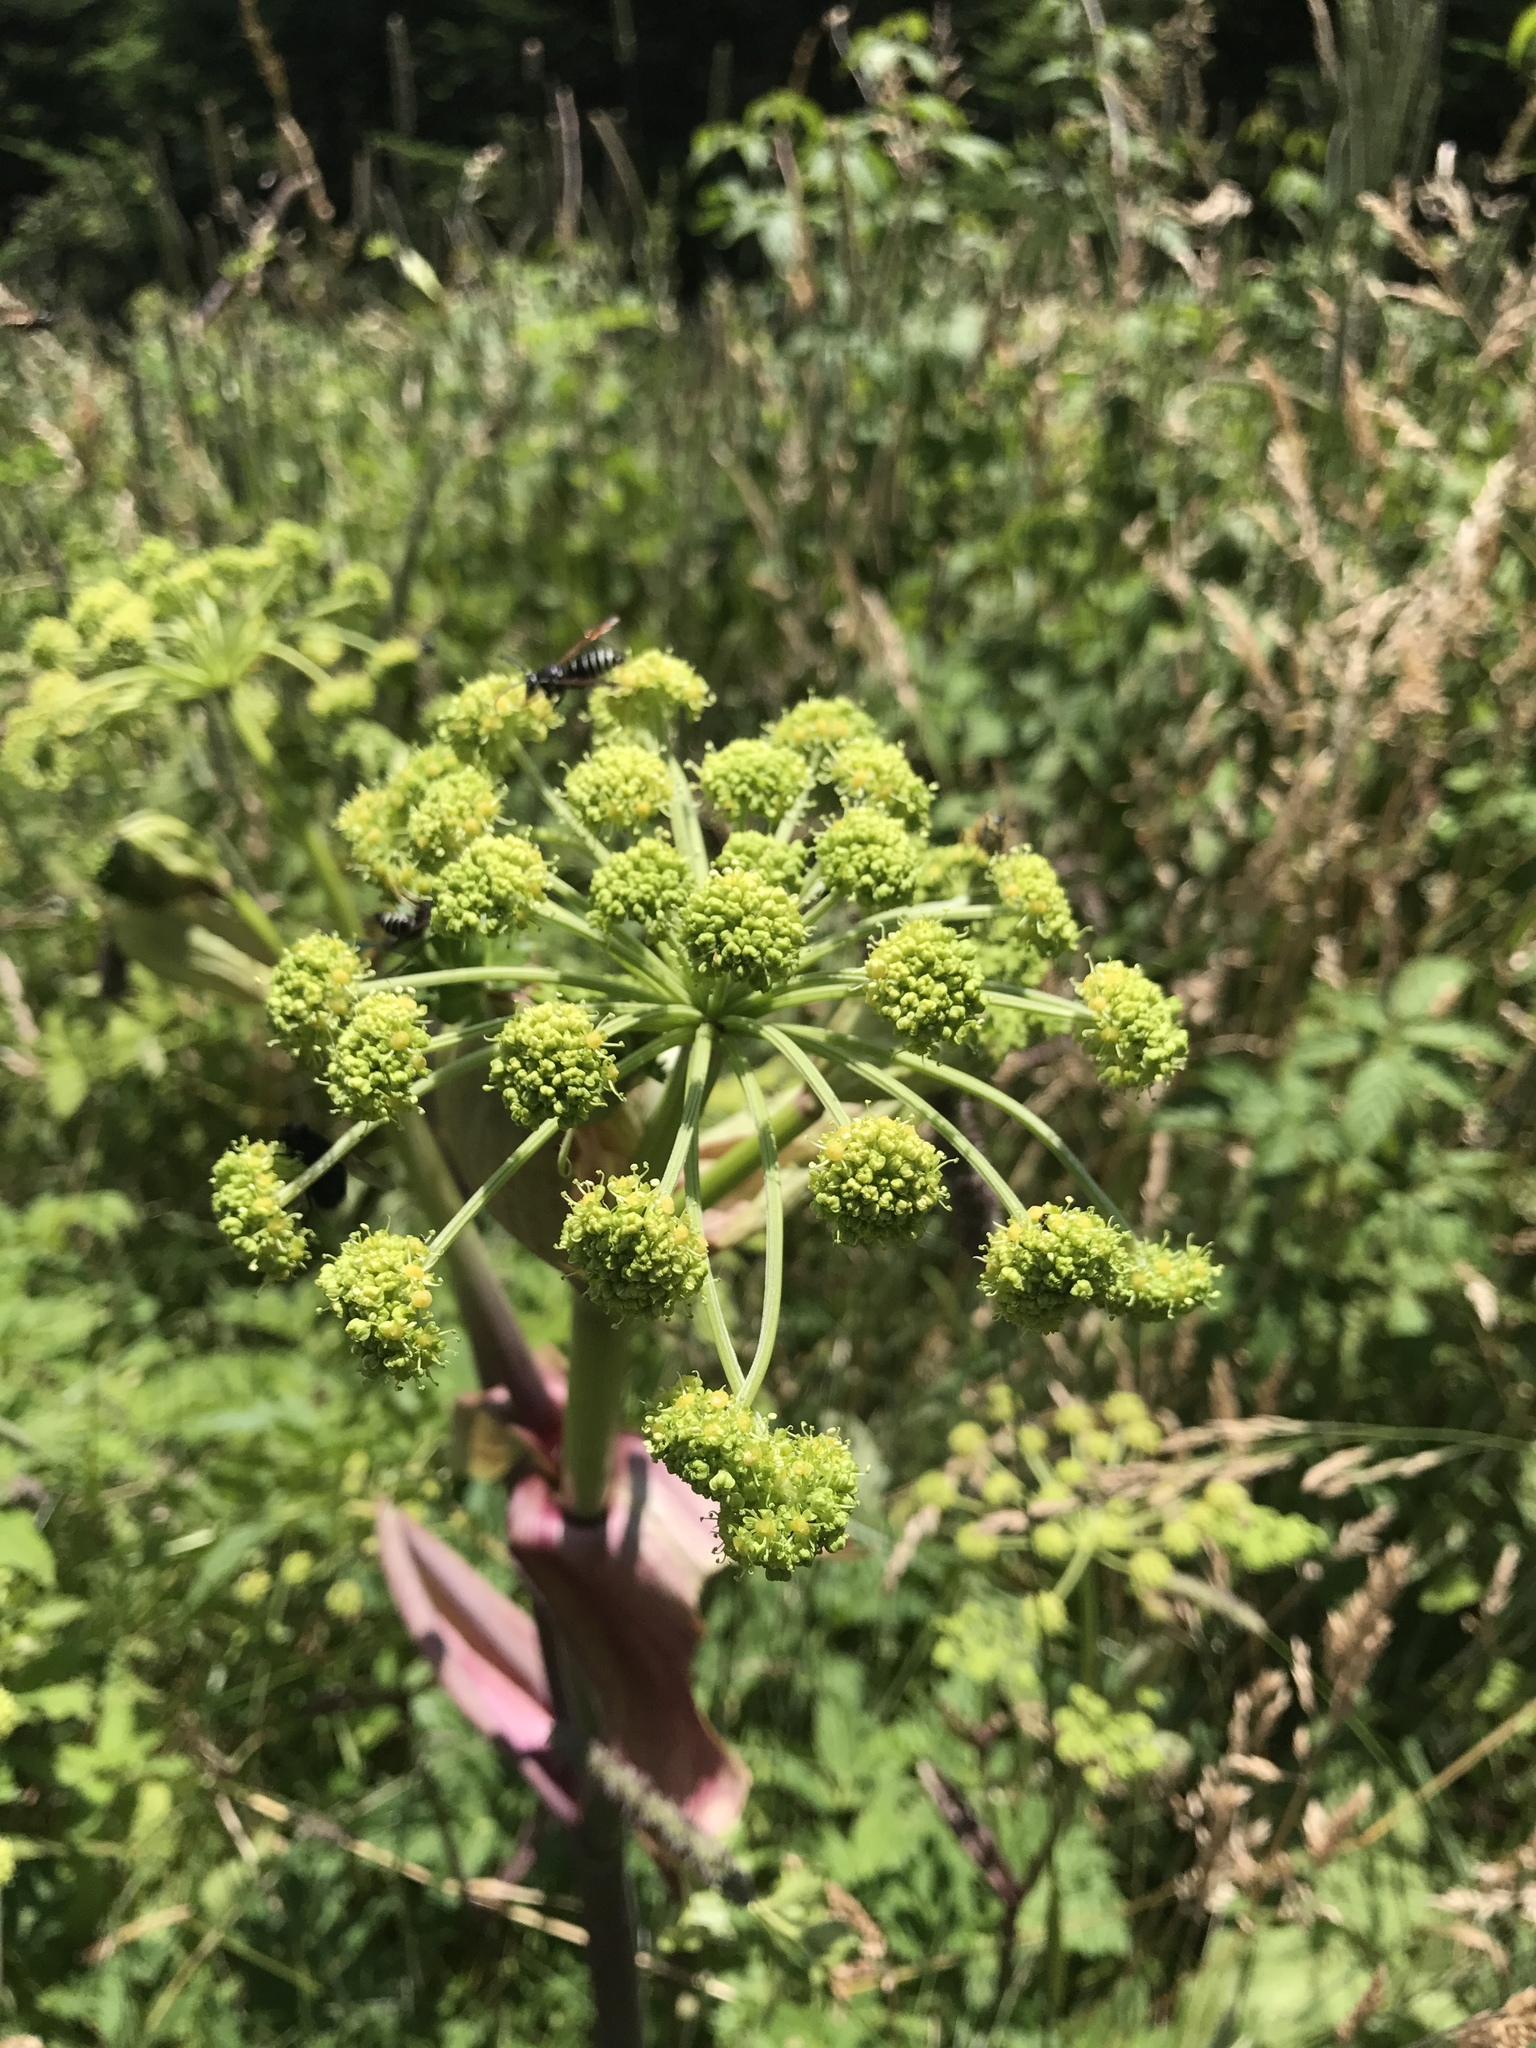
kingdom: Plantae
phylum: Tracheophyta
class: Magnoliopsida
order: Apiales
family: Apiaceae
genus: Angelica
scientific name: Angelica triquinata
